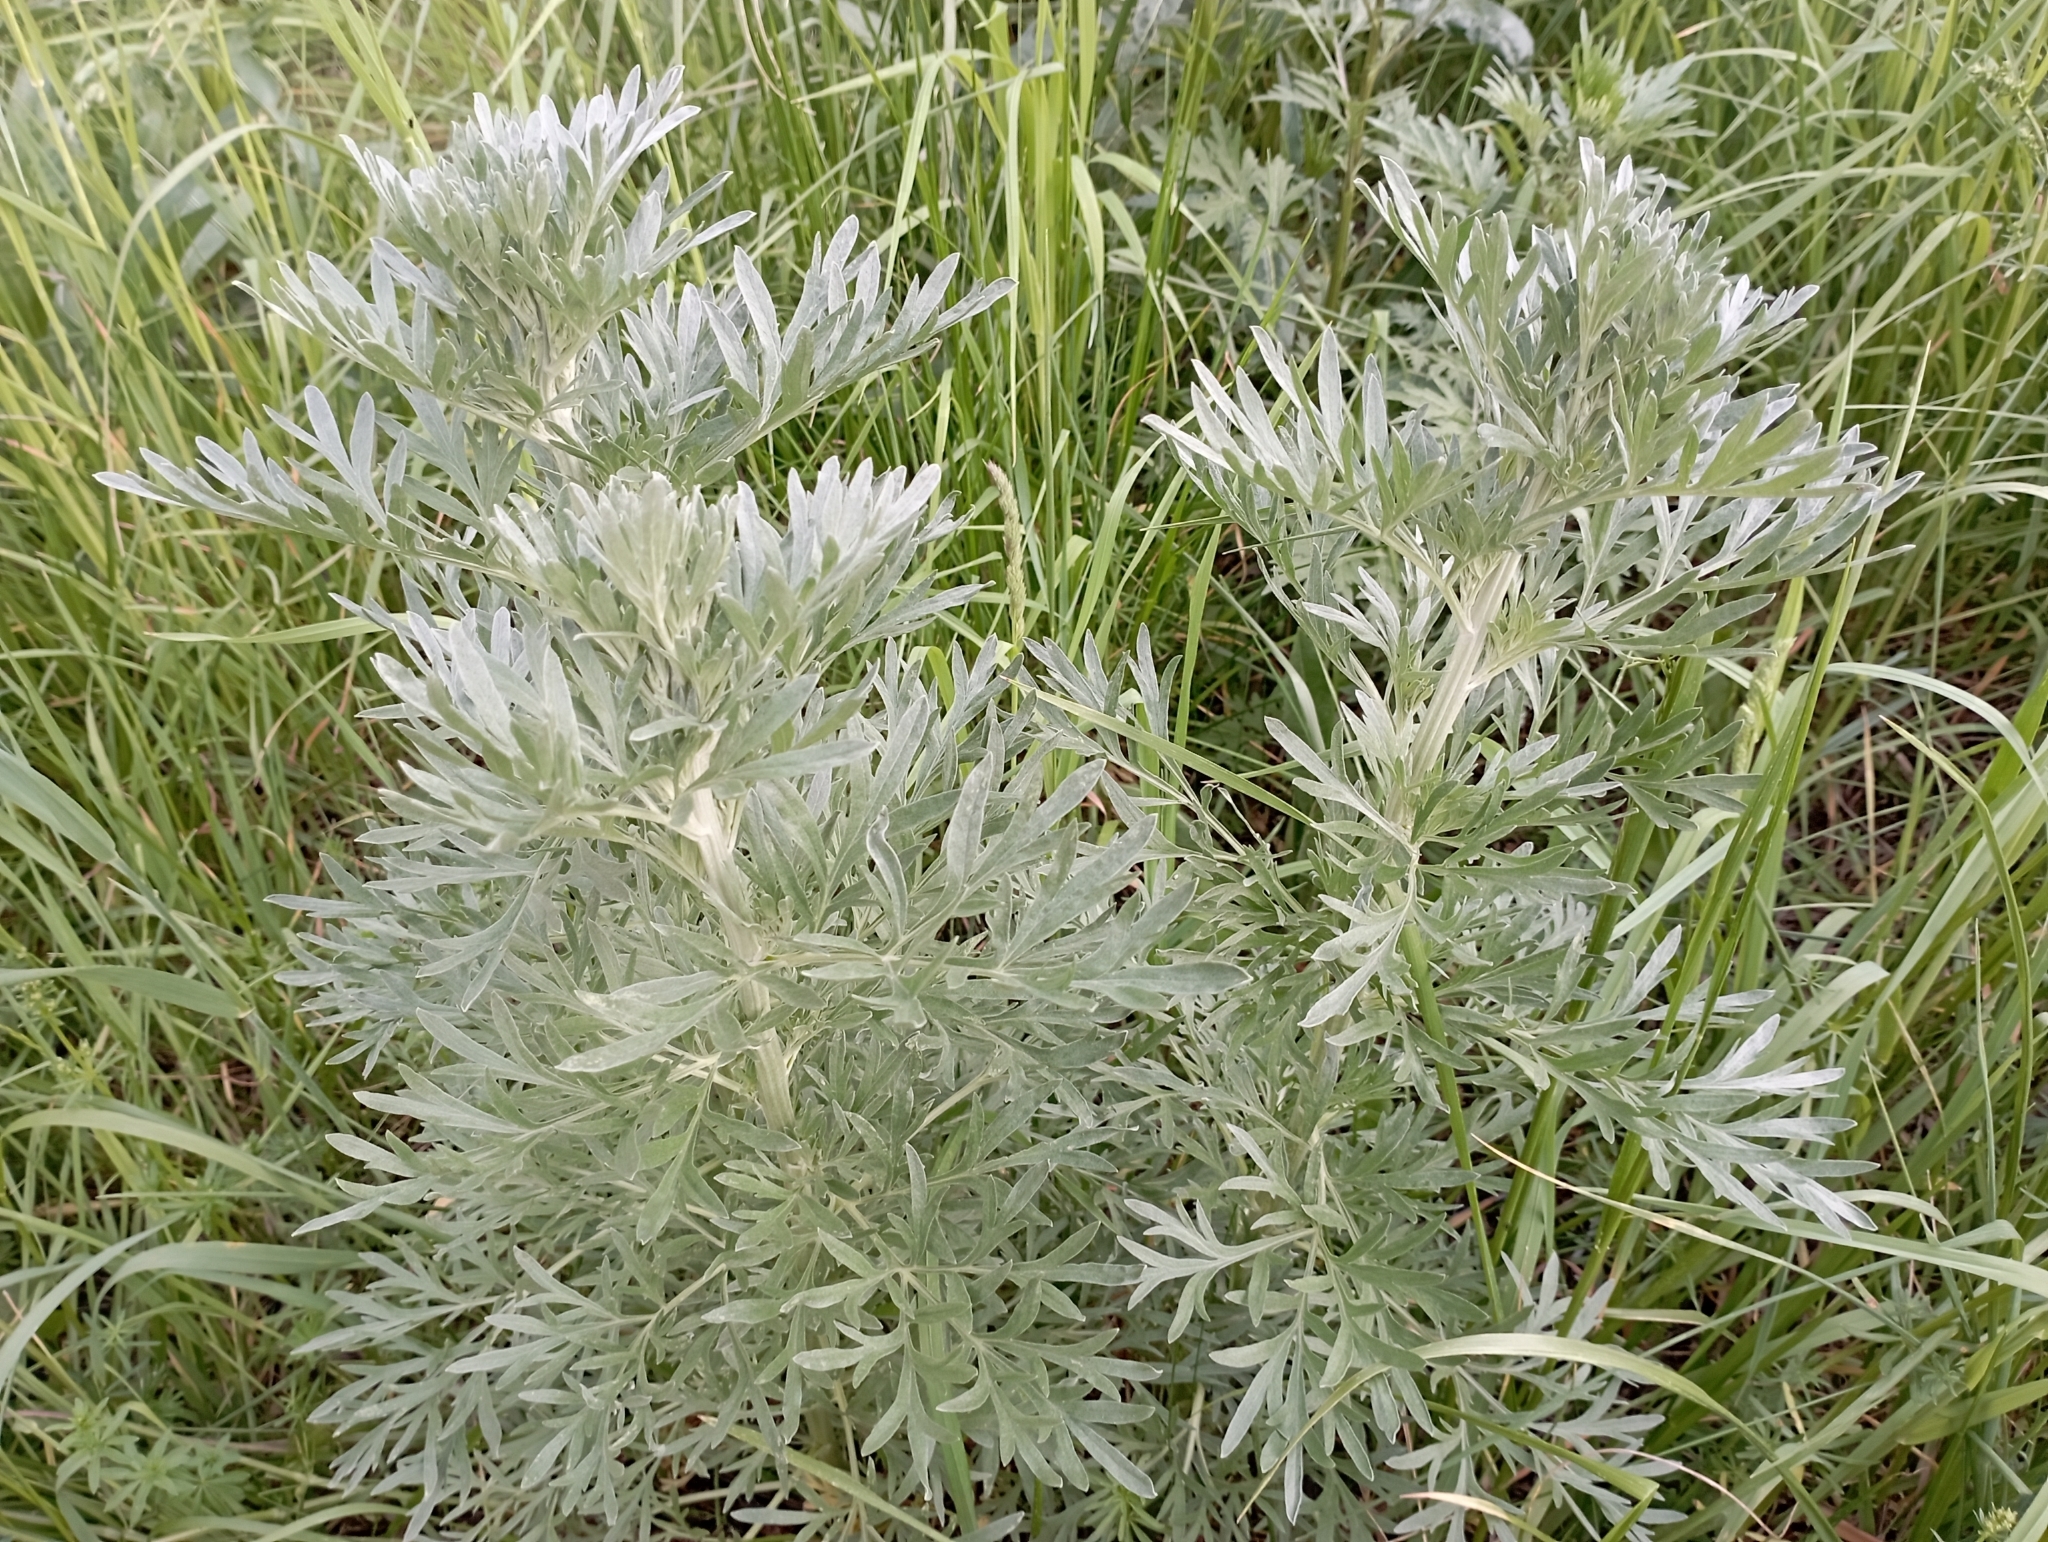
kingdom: Plantae
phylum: Tracheophyta
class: Magnoliopsida
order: Asterales
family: Asteraceae
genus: Artemisia
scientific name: Artemisia absinthium
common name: Wormwood
